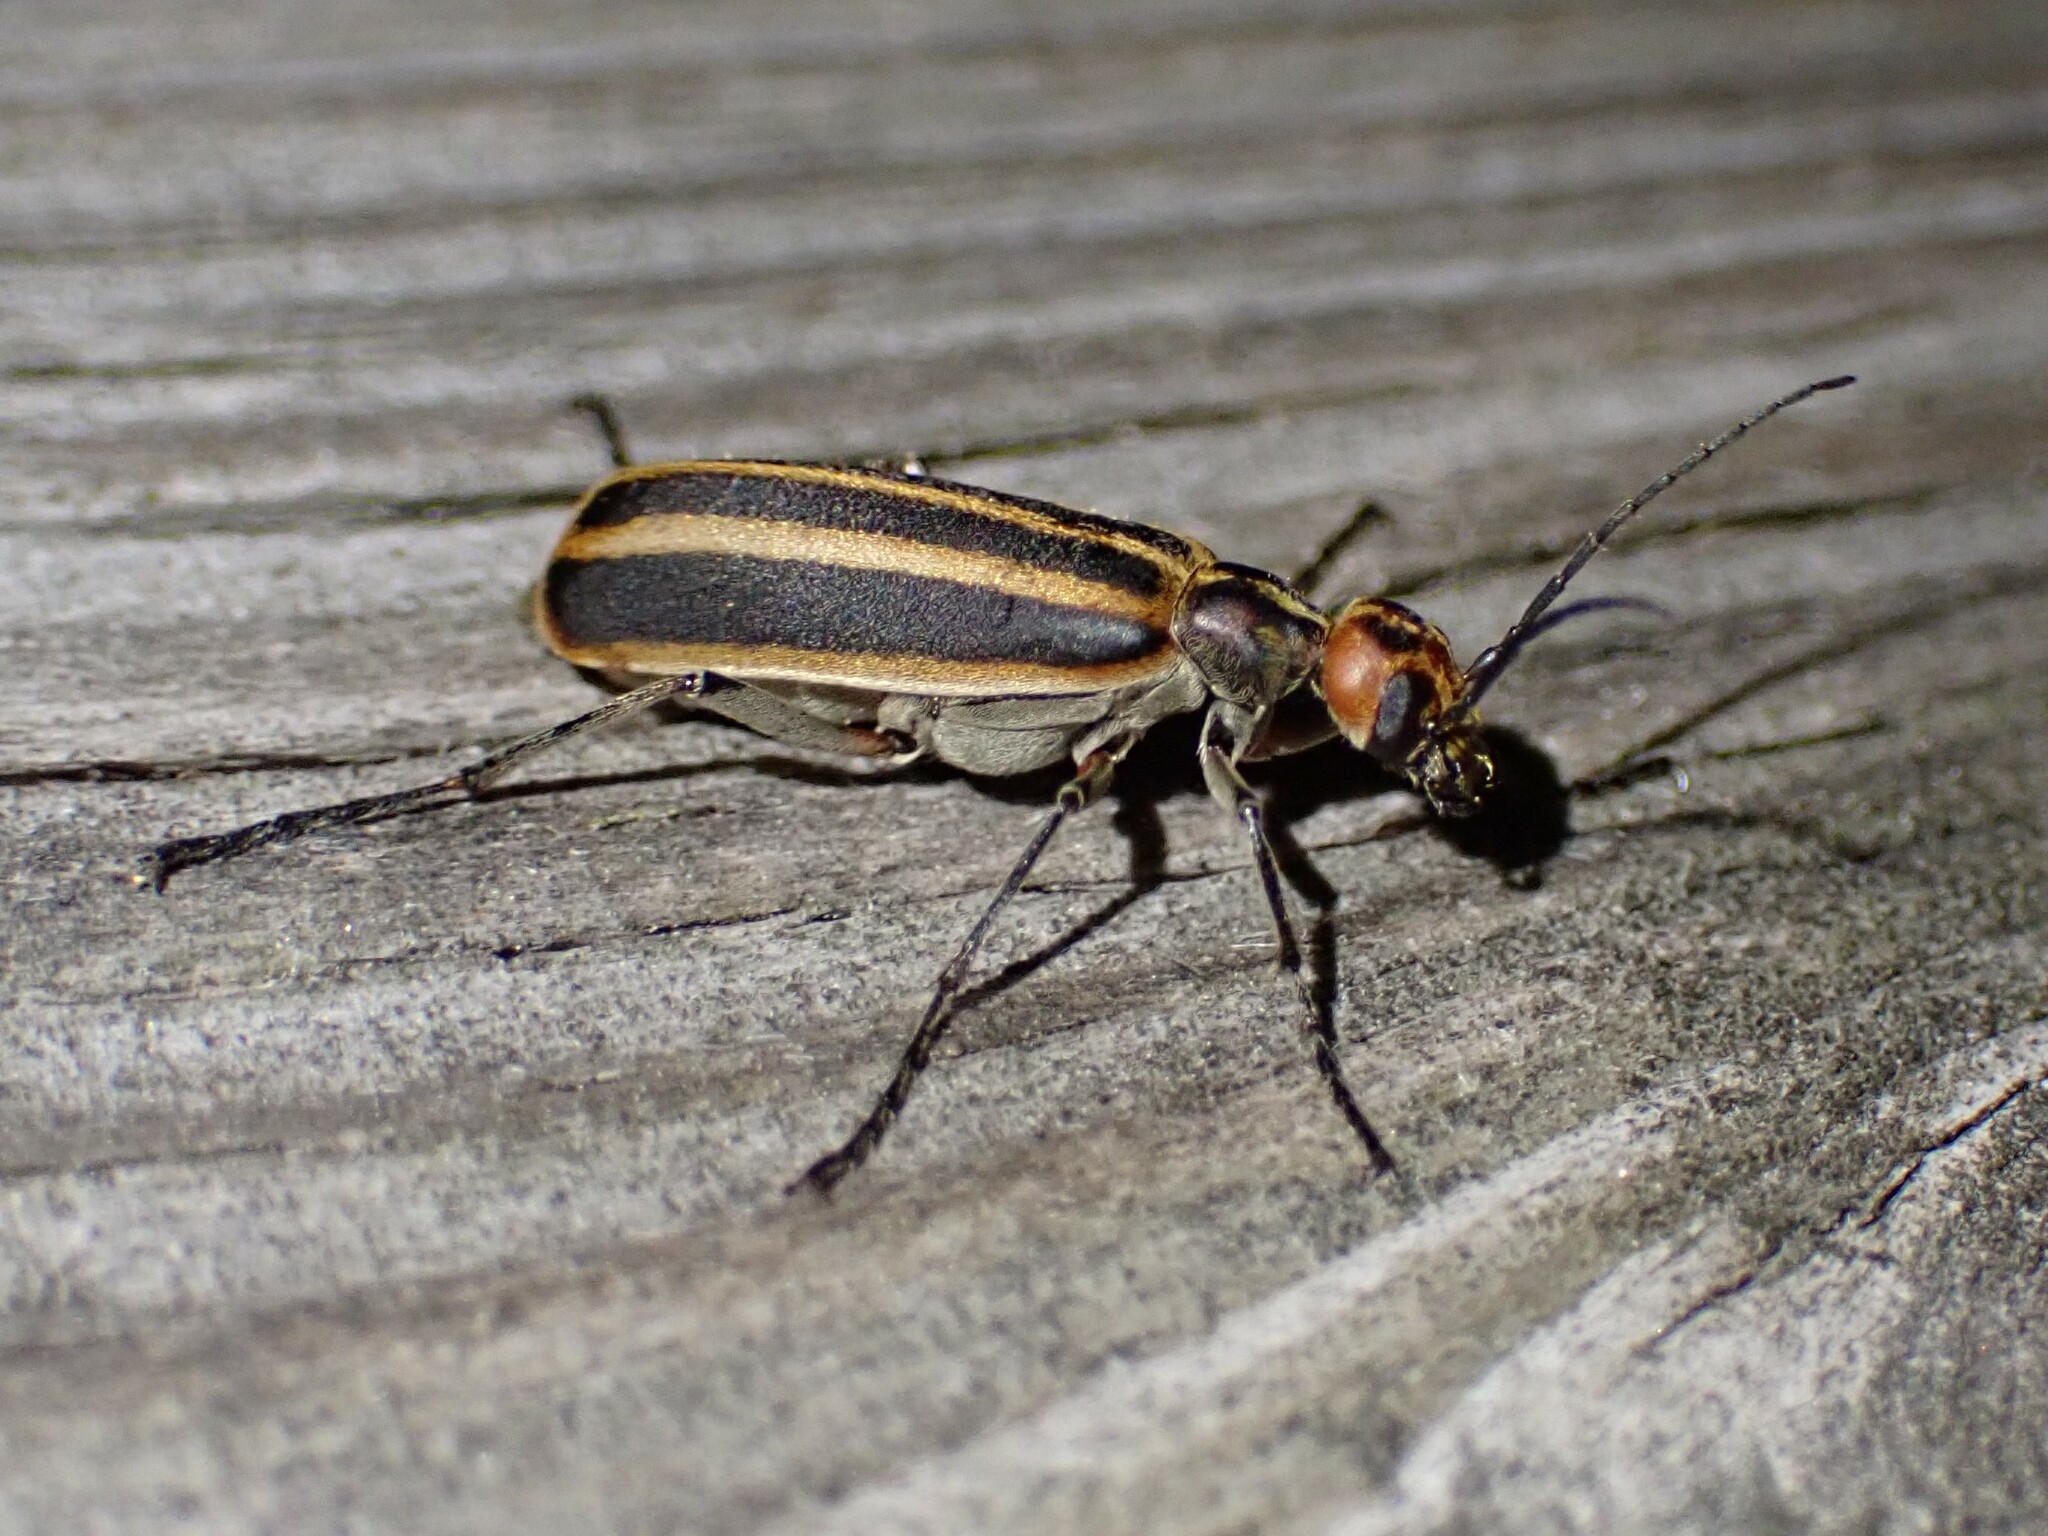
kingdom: Animalia
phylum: Arthropoda
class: Insecta
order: Coleoptera
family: Meloidae
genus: Epicauta
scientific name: Epicauta vittata
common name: Old-fashioned potato beetle
